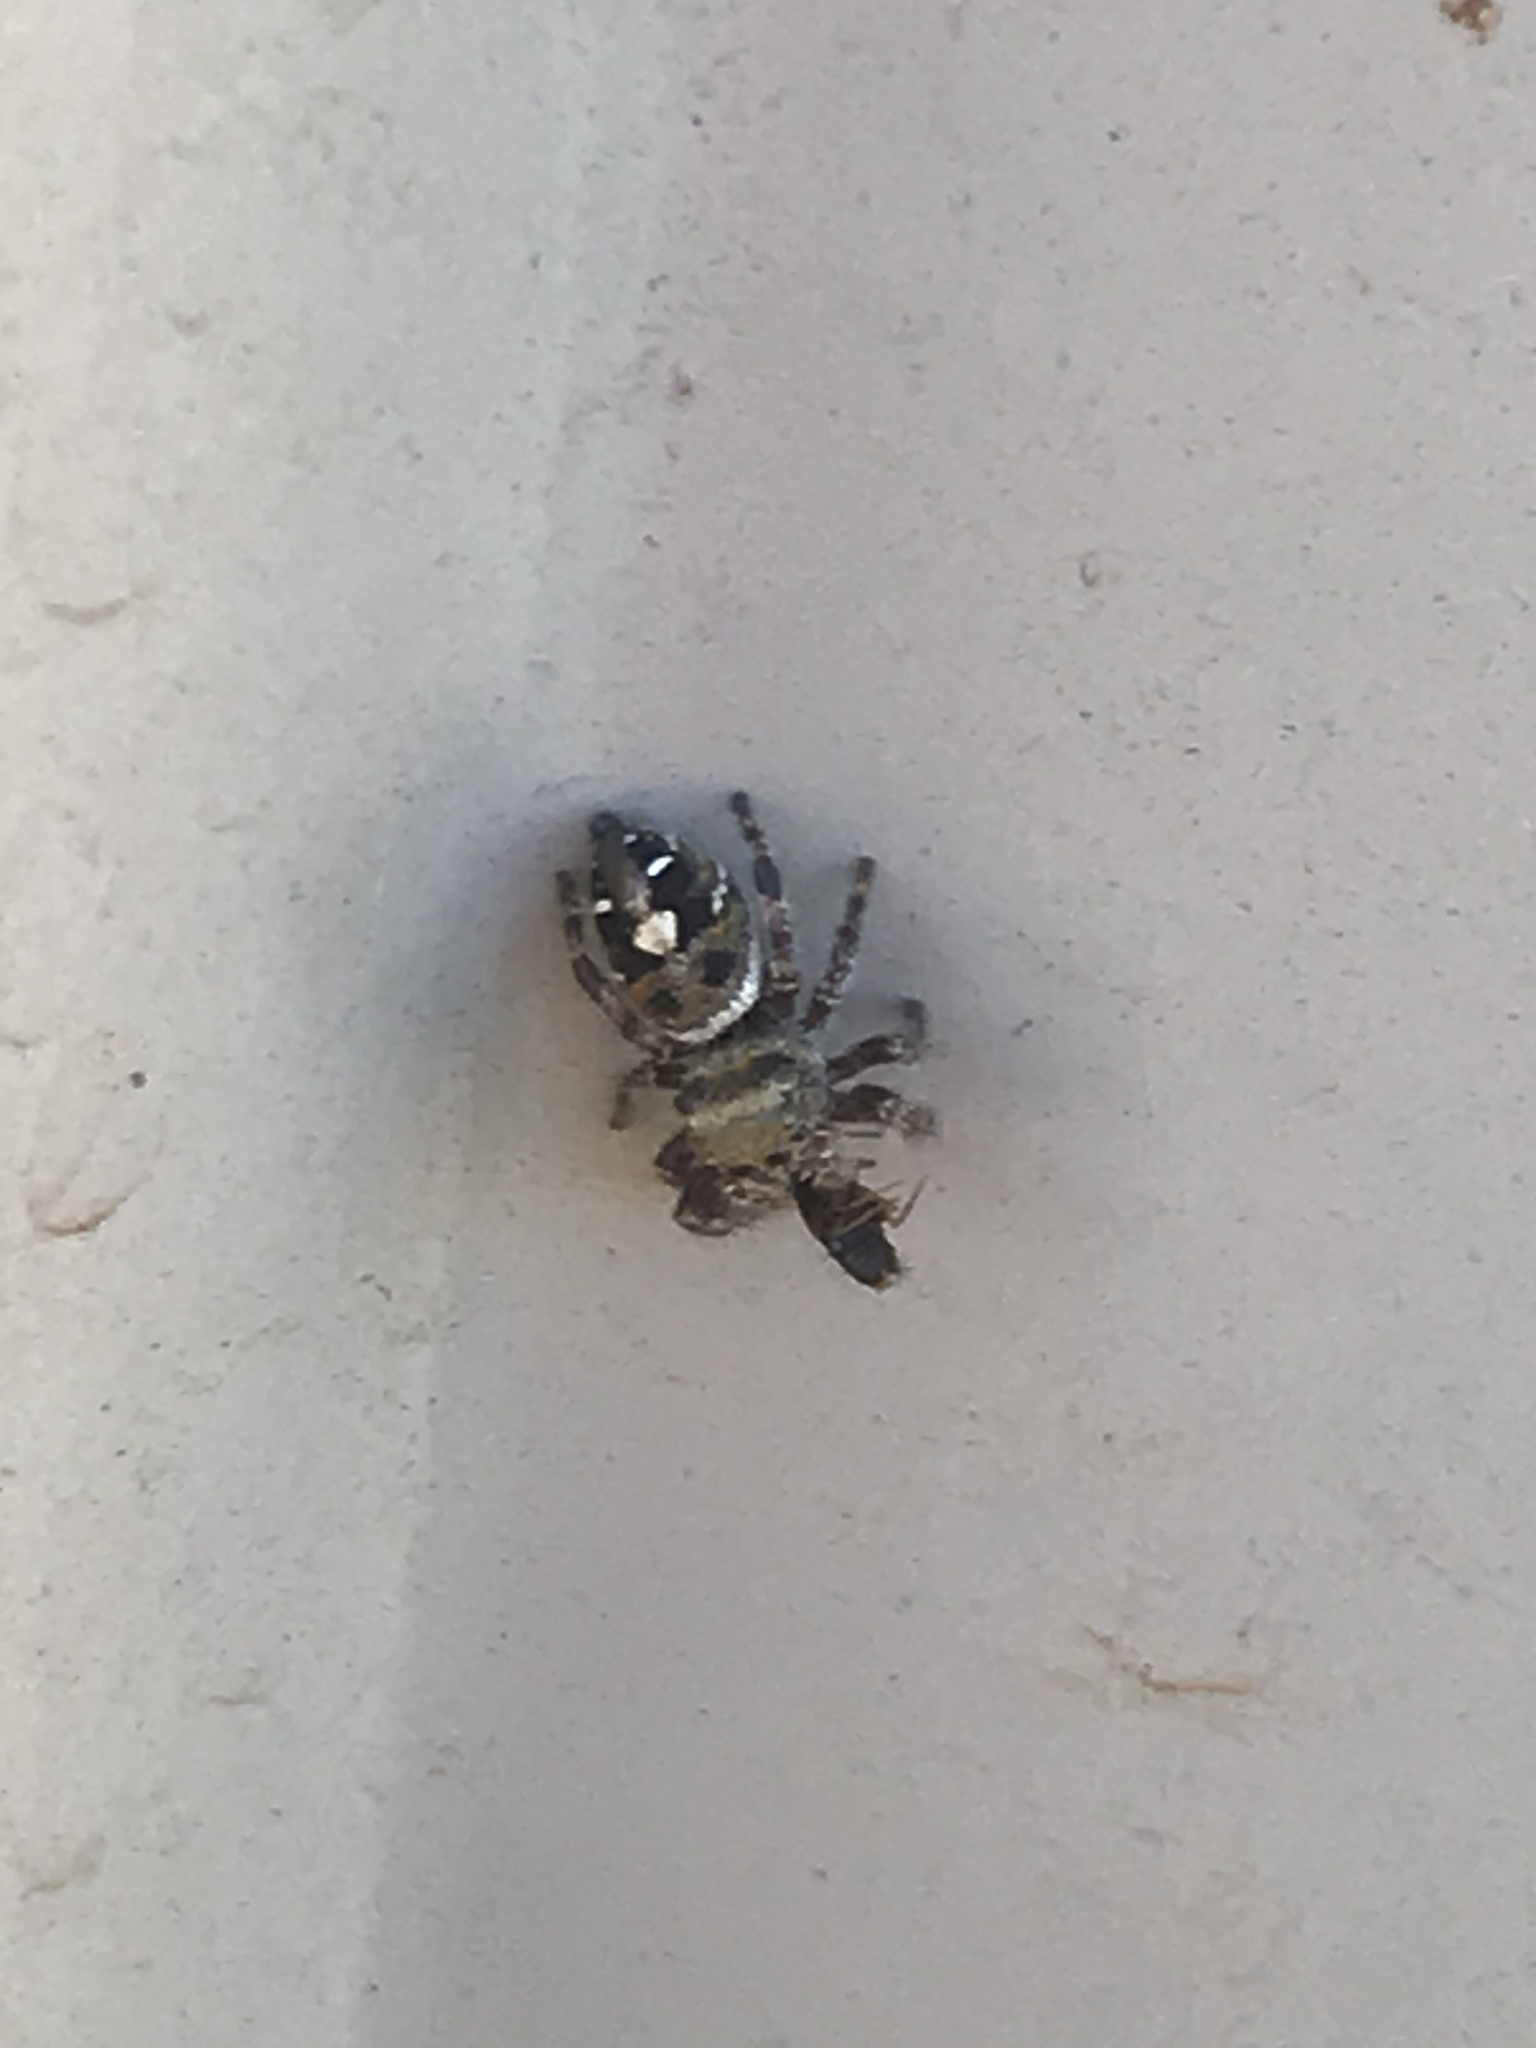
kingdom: Animalia
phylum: Arthropoda
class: Arachnida
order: Araneae
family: Salticidae
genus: Phidippus
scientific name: Phidippus audax
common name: Bold jumper
